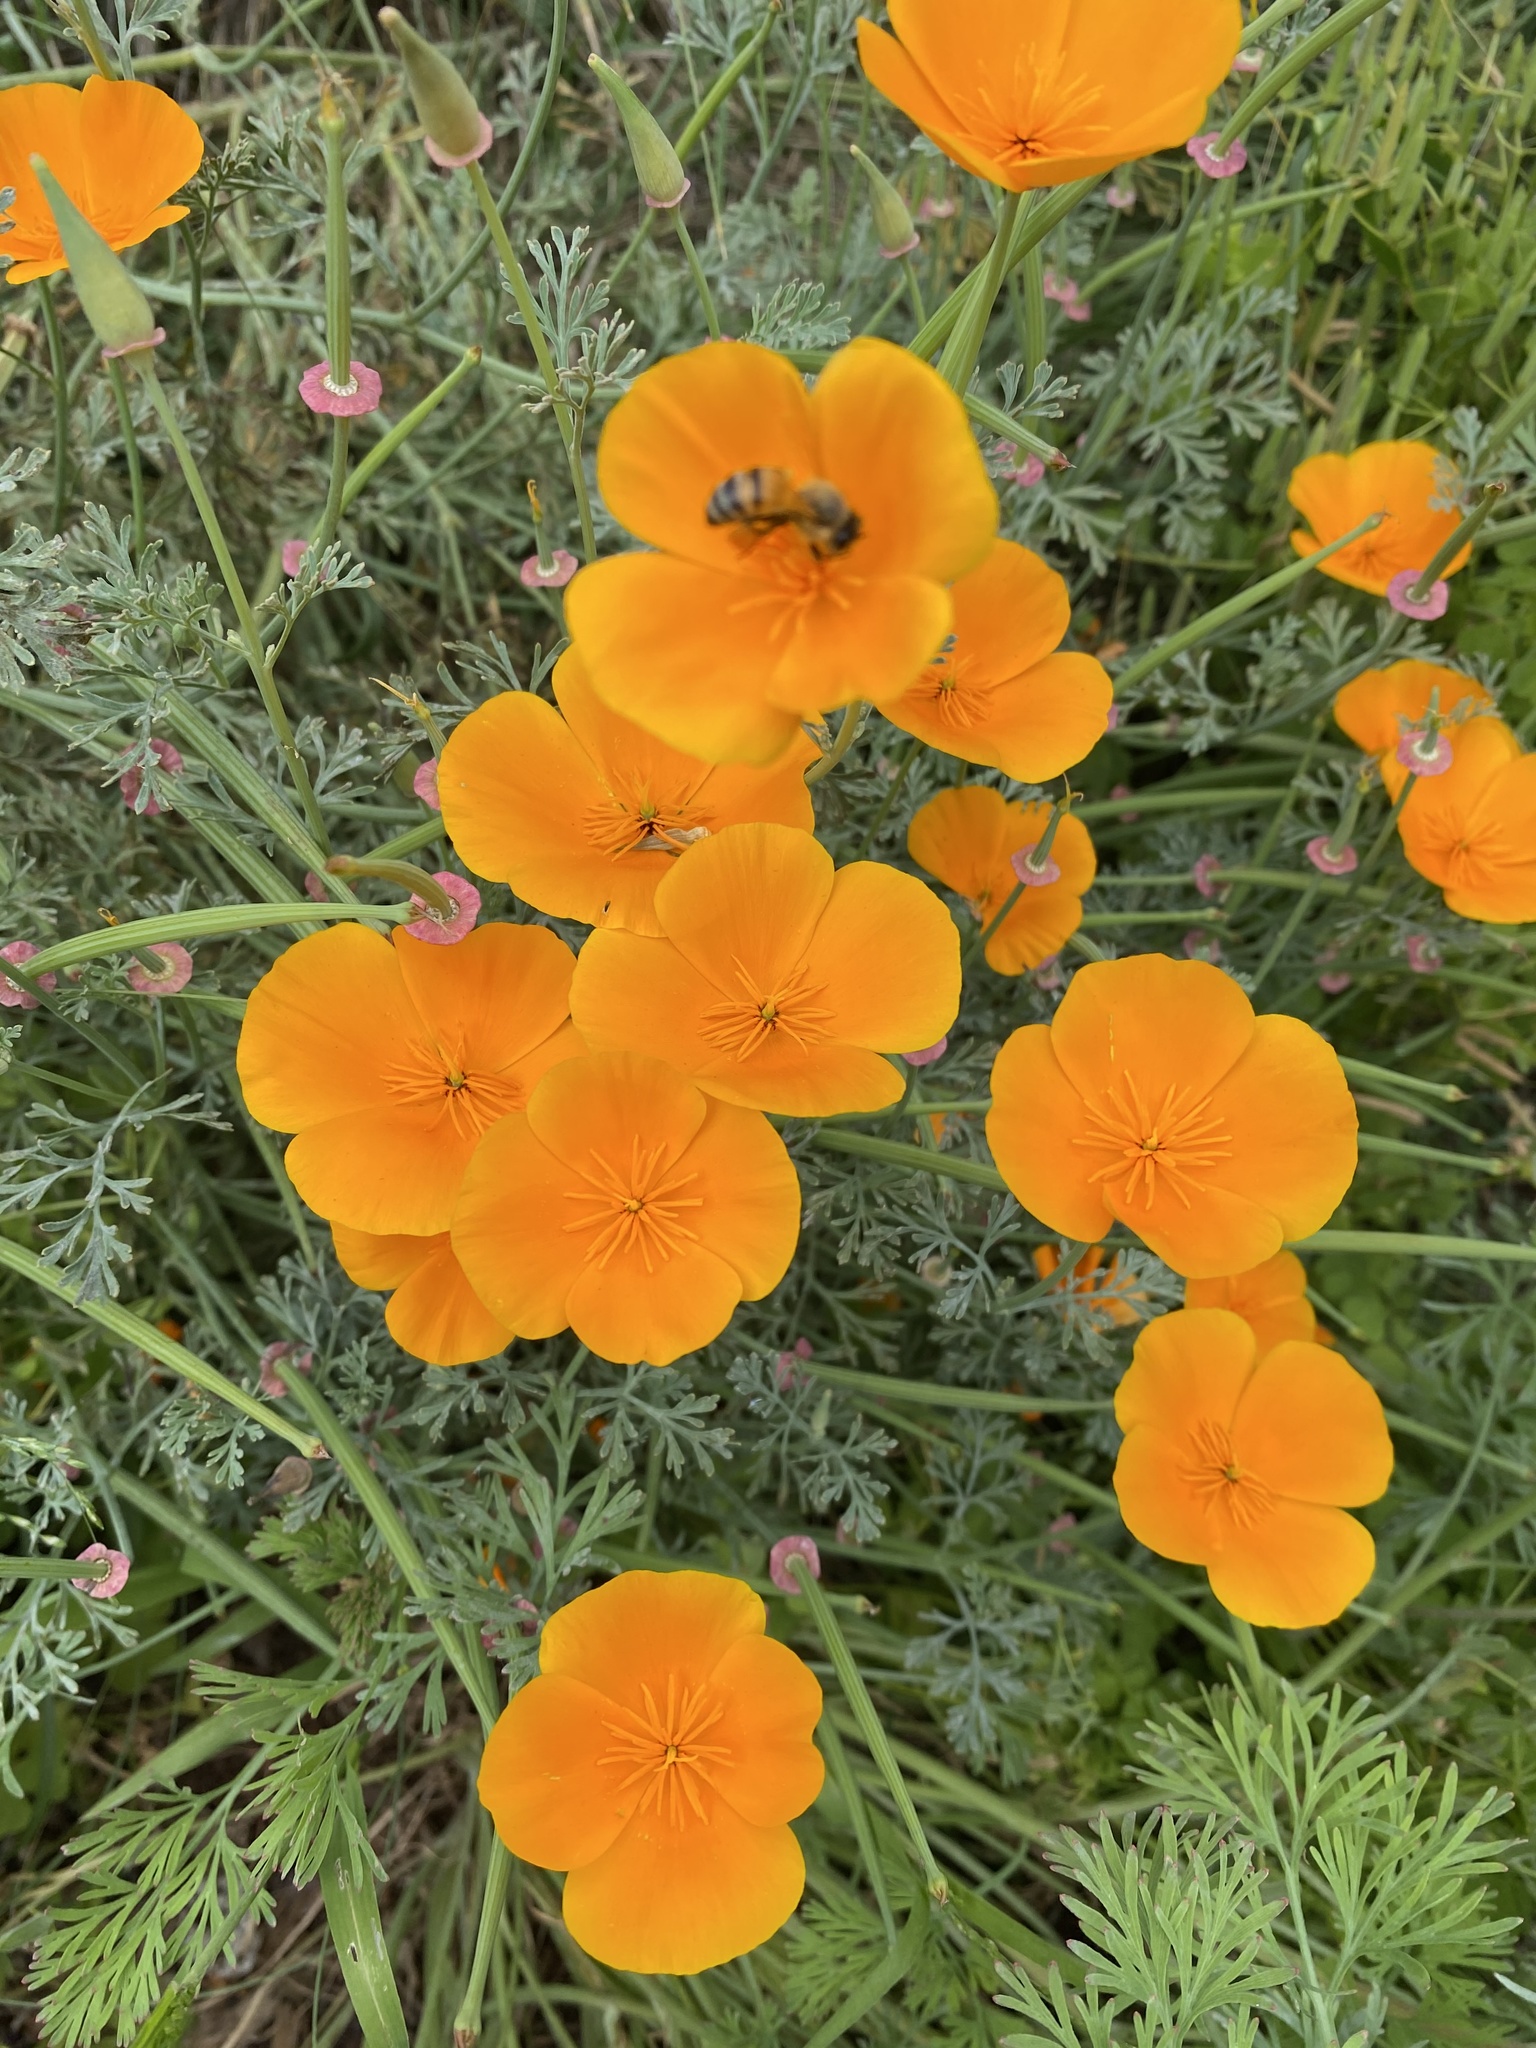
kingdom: Animalia
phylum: Arthropoda
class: Insecta
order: Hymenoptera
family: Apidae
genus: Apis
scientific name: Apis mellifera
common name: Honey bee
